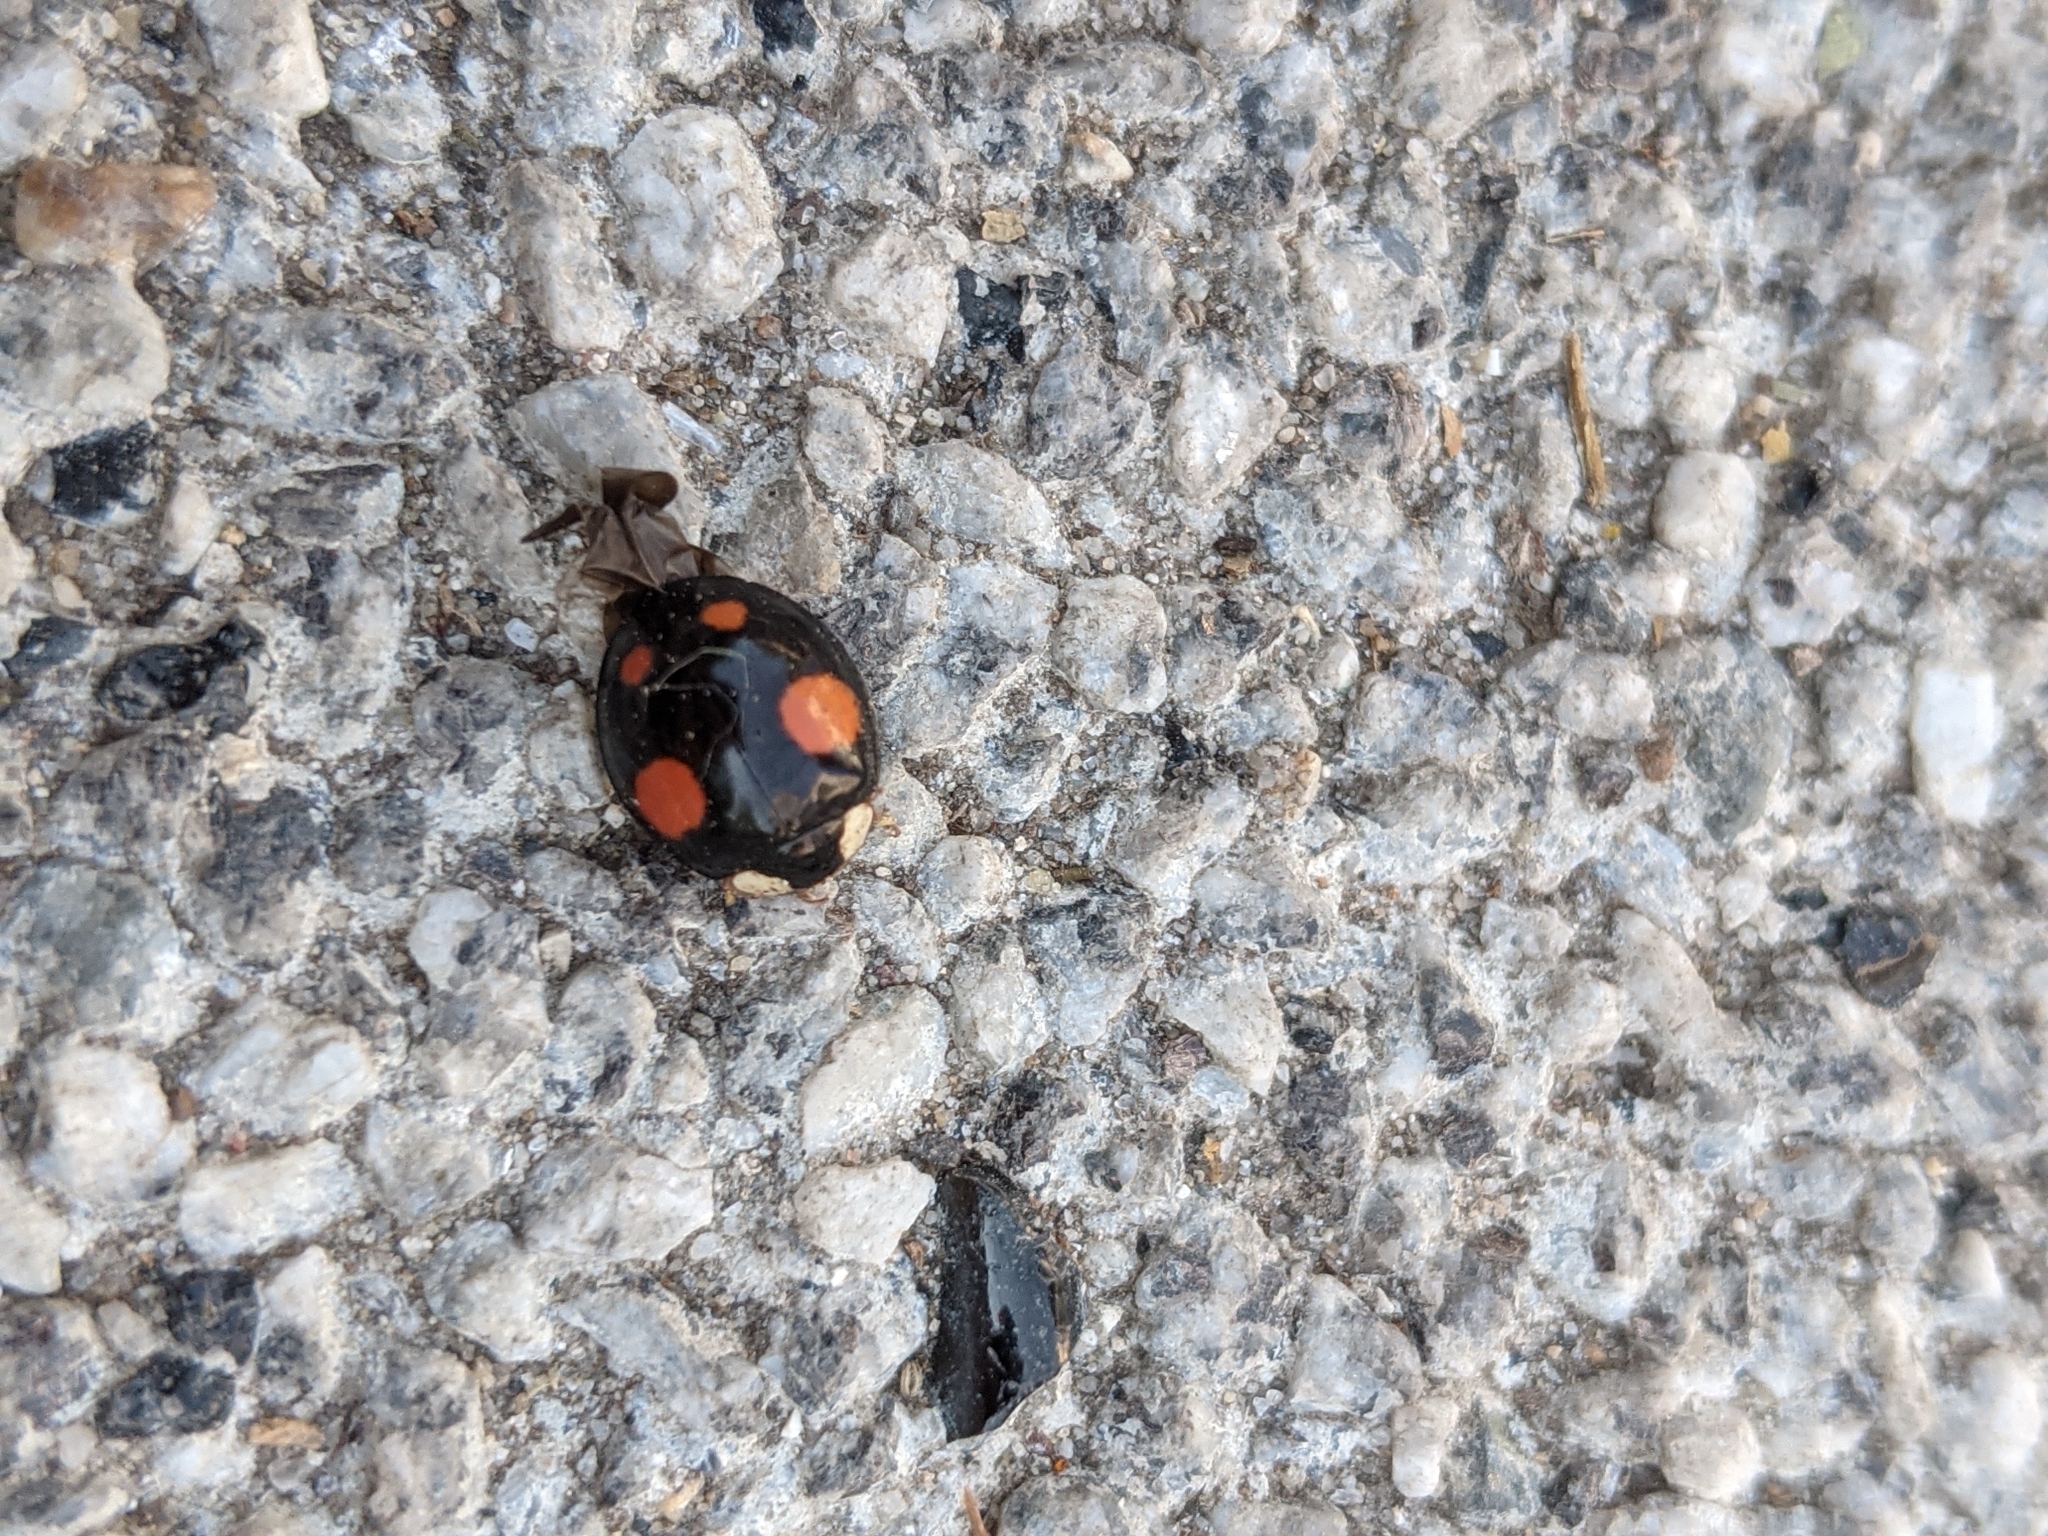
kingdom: Animalia
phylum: Arthropoda
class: Insecta
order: Coleoptera
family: Coccinellidae
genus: Harmonia
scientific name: Harmonia axyridis
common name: Harlequin ladybird
